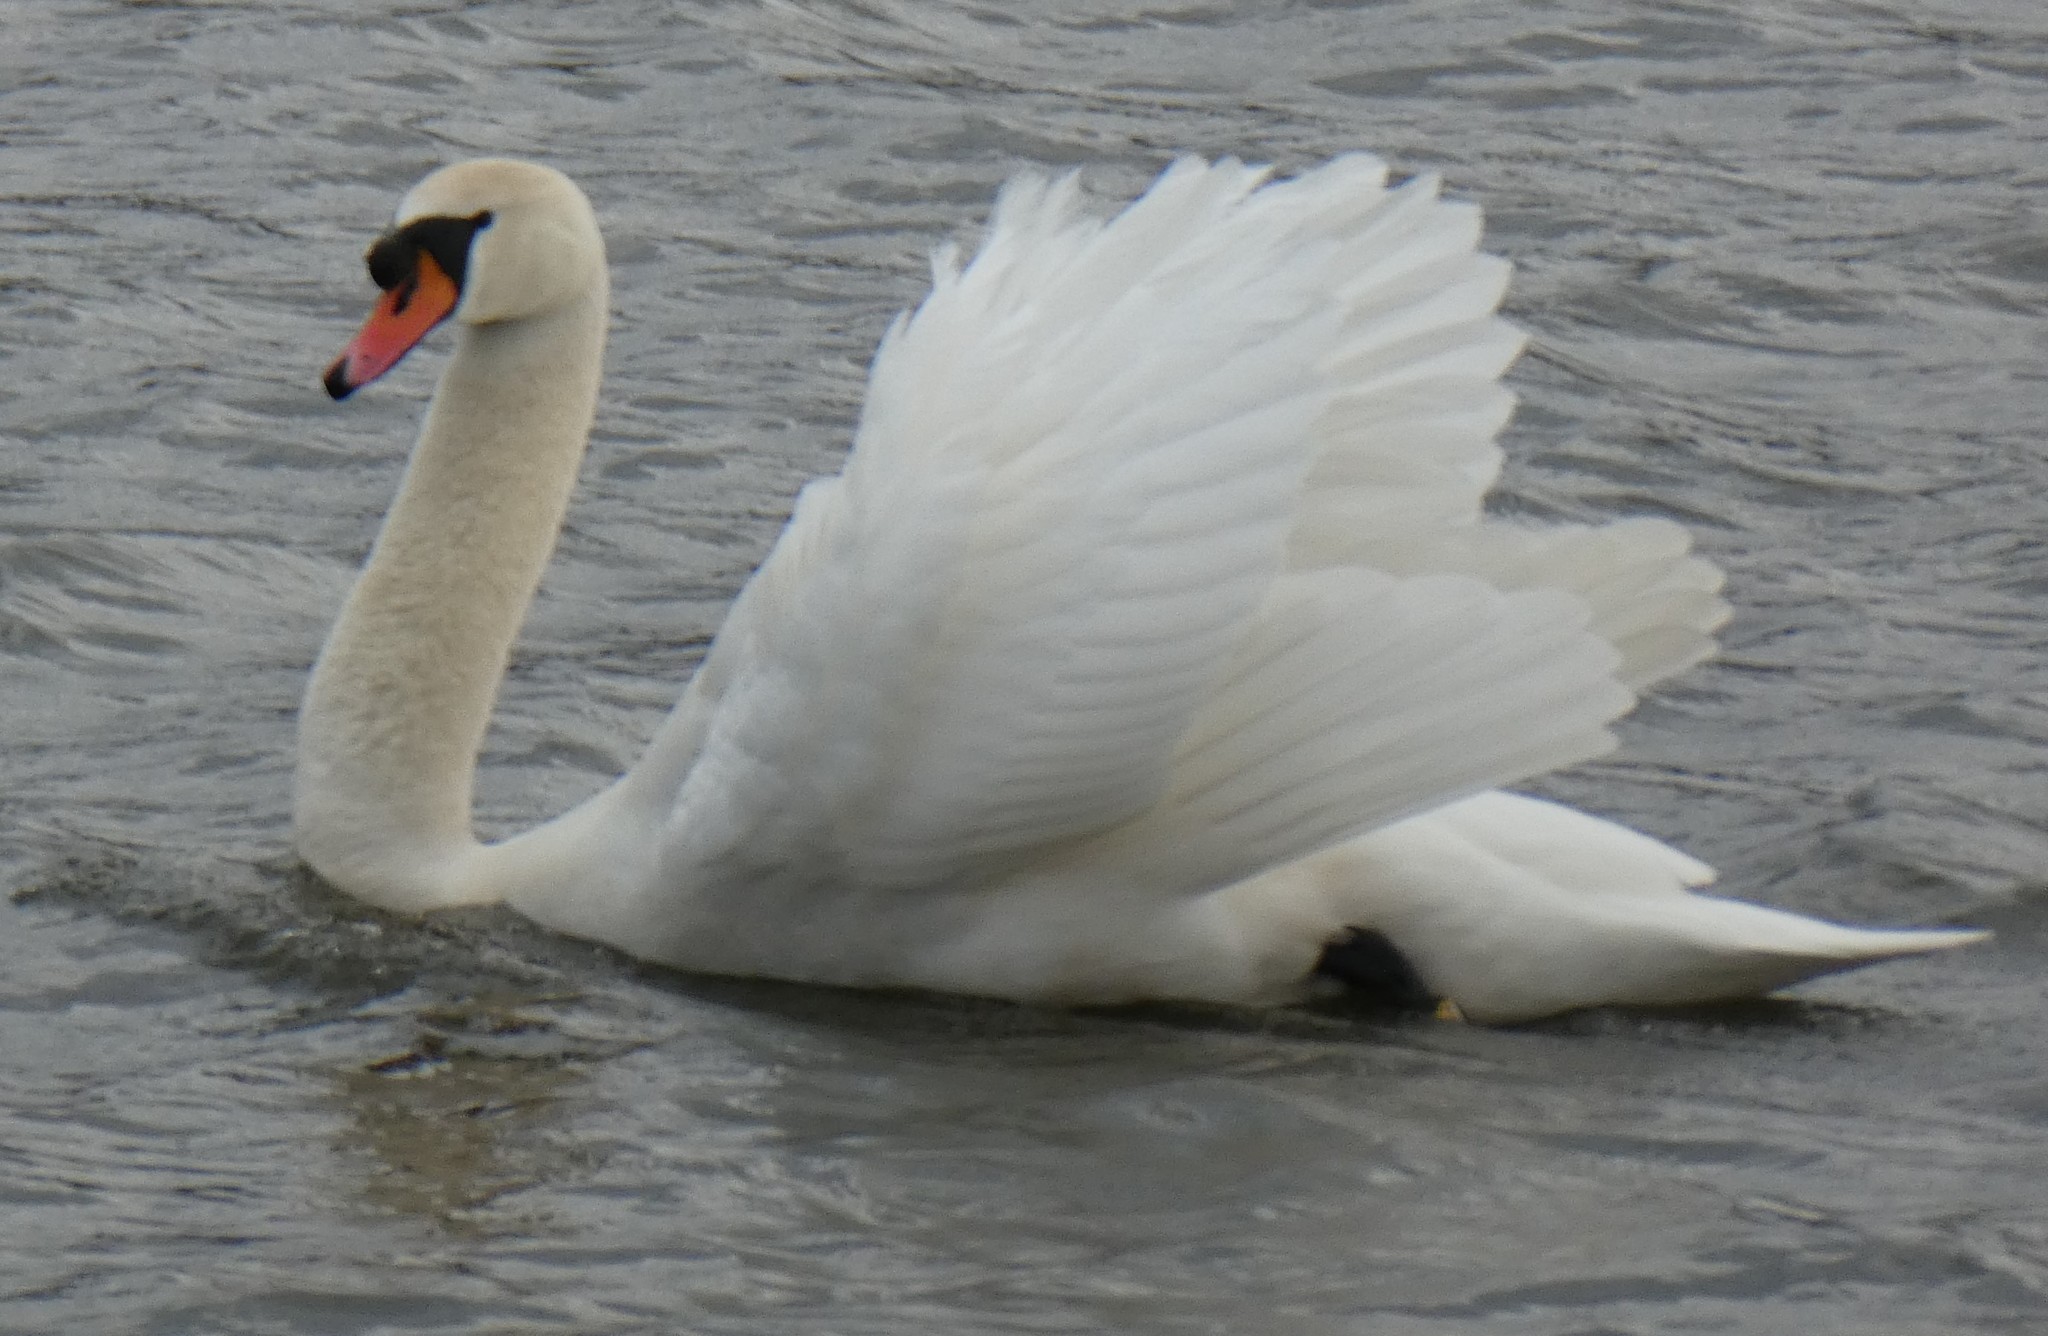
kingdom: Animalia
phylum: Chordata
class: Aves
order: Anseriformes
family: Anatidae
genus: Cygnus
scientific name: Cygnus olor
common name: Mute swan
